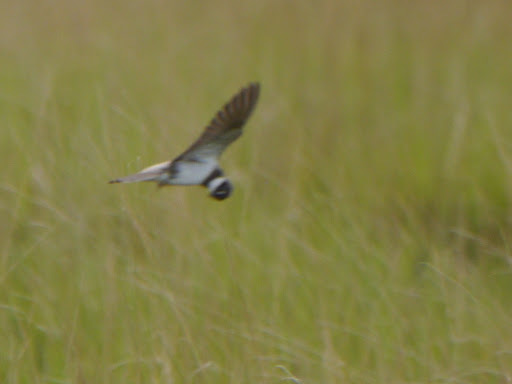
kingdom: Animalia
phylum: Chordata
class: Aves
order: Passeriformes
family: Hirundinidae
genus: Riparia
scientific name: Riparia cincta
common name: Banded martin
